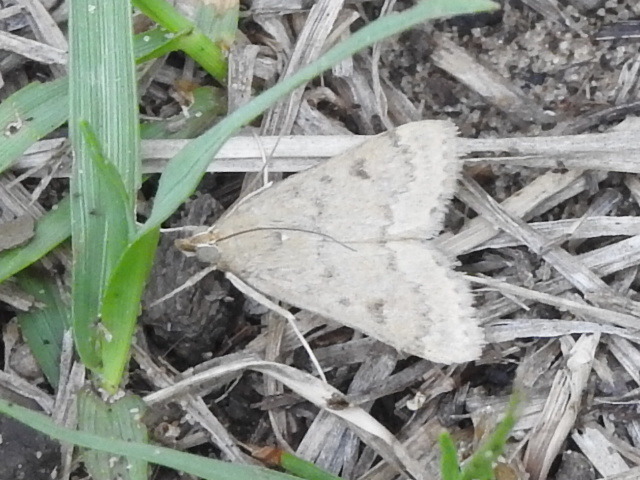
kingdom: Animalia
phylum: Arthropoda
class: Insecta
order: Lepidoptera
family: Crambidae
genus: Achyra
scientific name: Achyra rantalis
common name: Garden webworm
